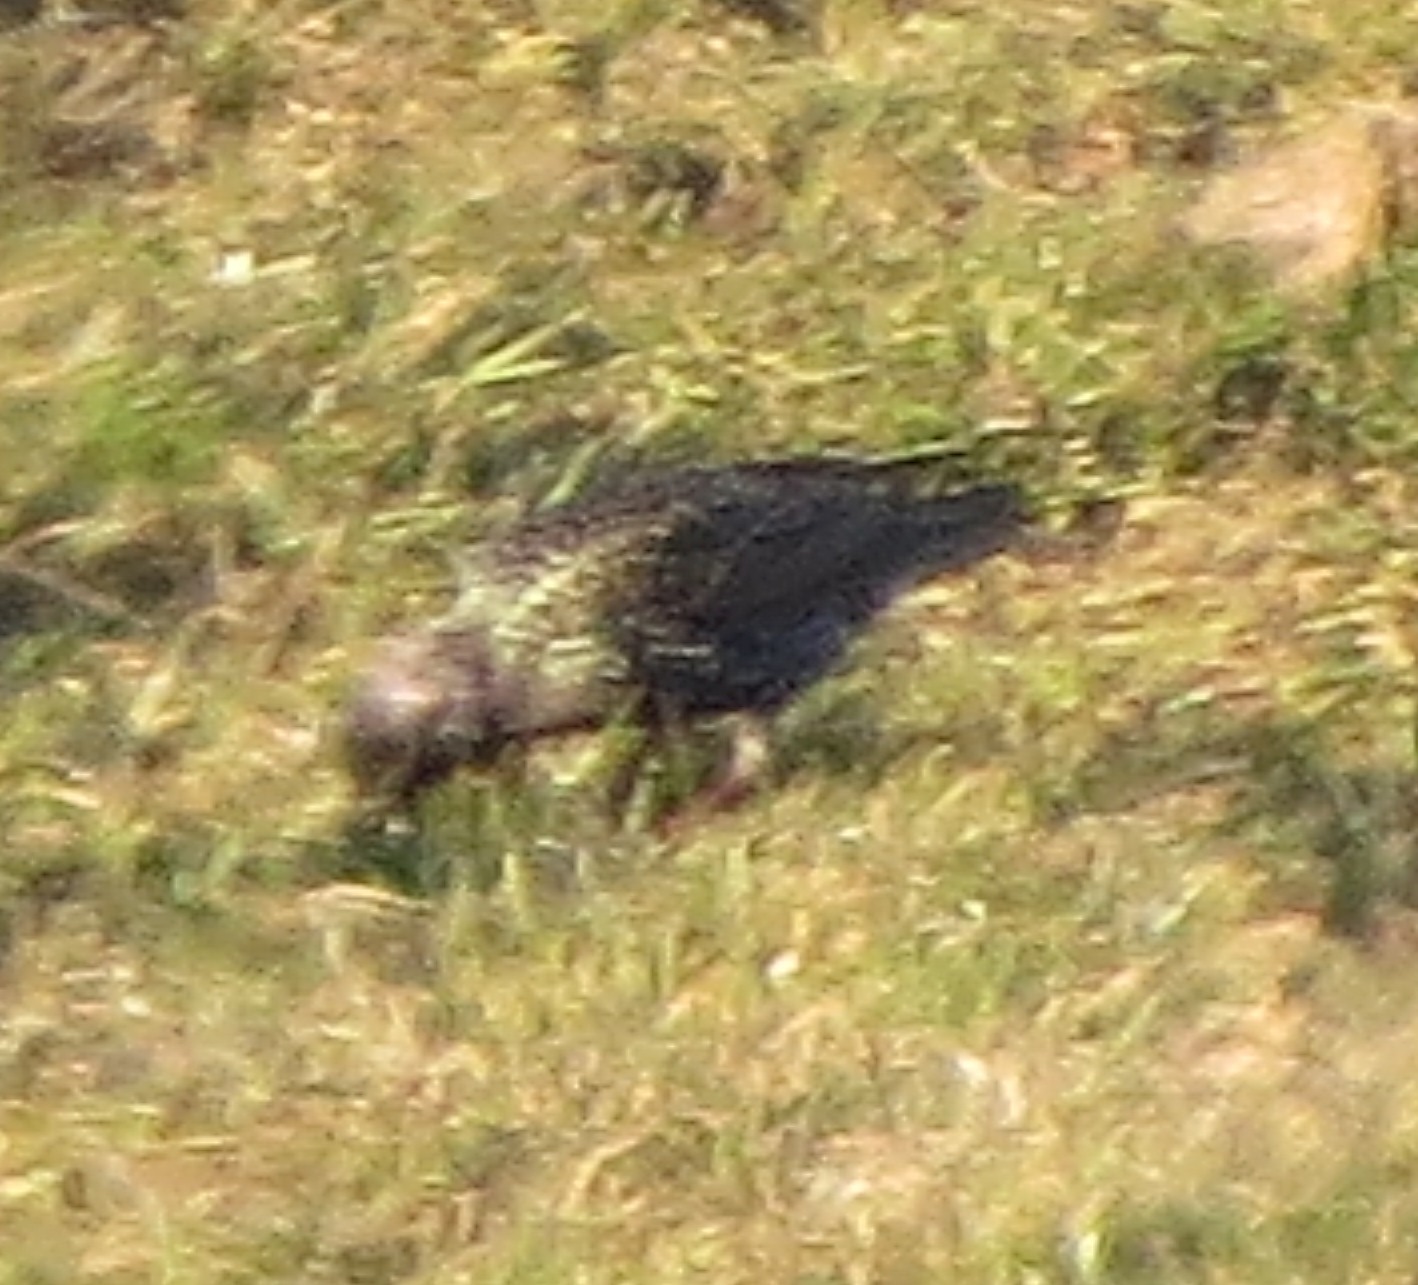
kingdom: Animalia
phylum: Chordata
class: Aves
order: Passeriformes
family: Sturnidae
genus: Sturnus
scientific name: Sturnus vulgaris
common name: Common starling
